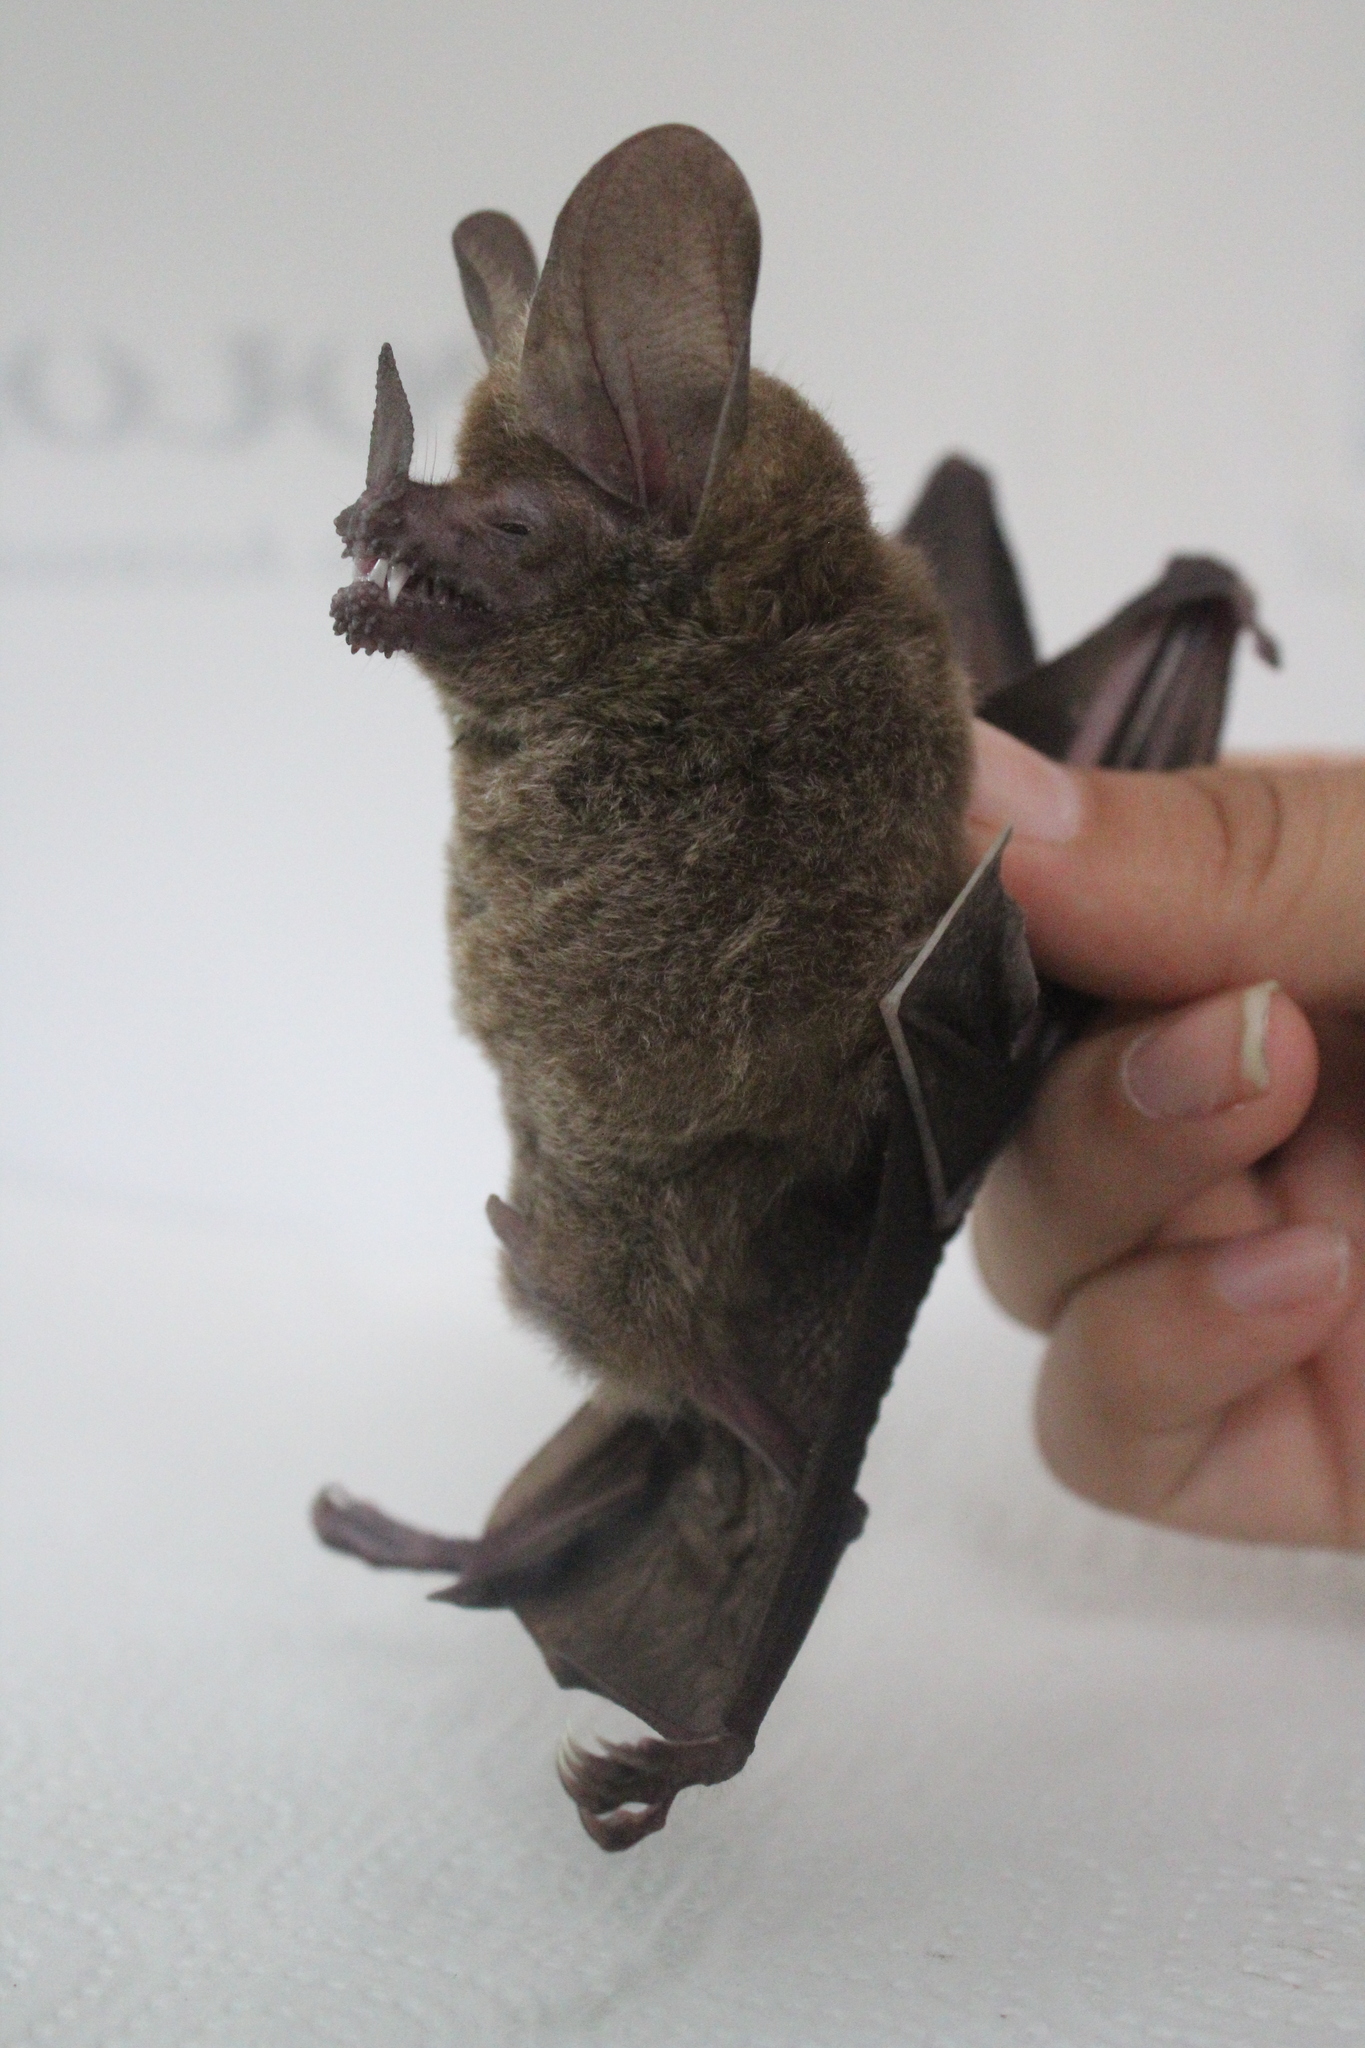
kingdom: Animalia
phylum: Chordata
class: Mammalia
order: Chiroptera
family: Phyllostomidae
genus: Trachops
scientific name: Trachops cirrhosus
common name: Fringe-lipped bat
